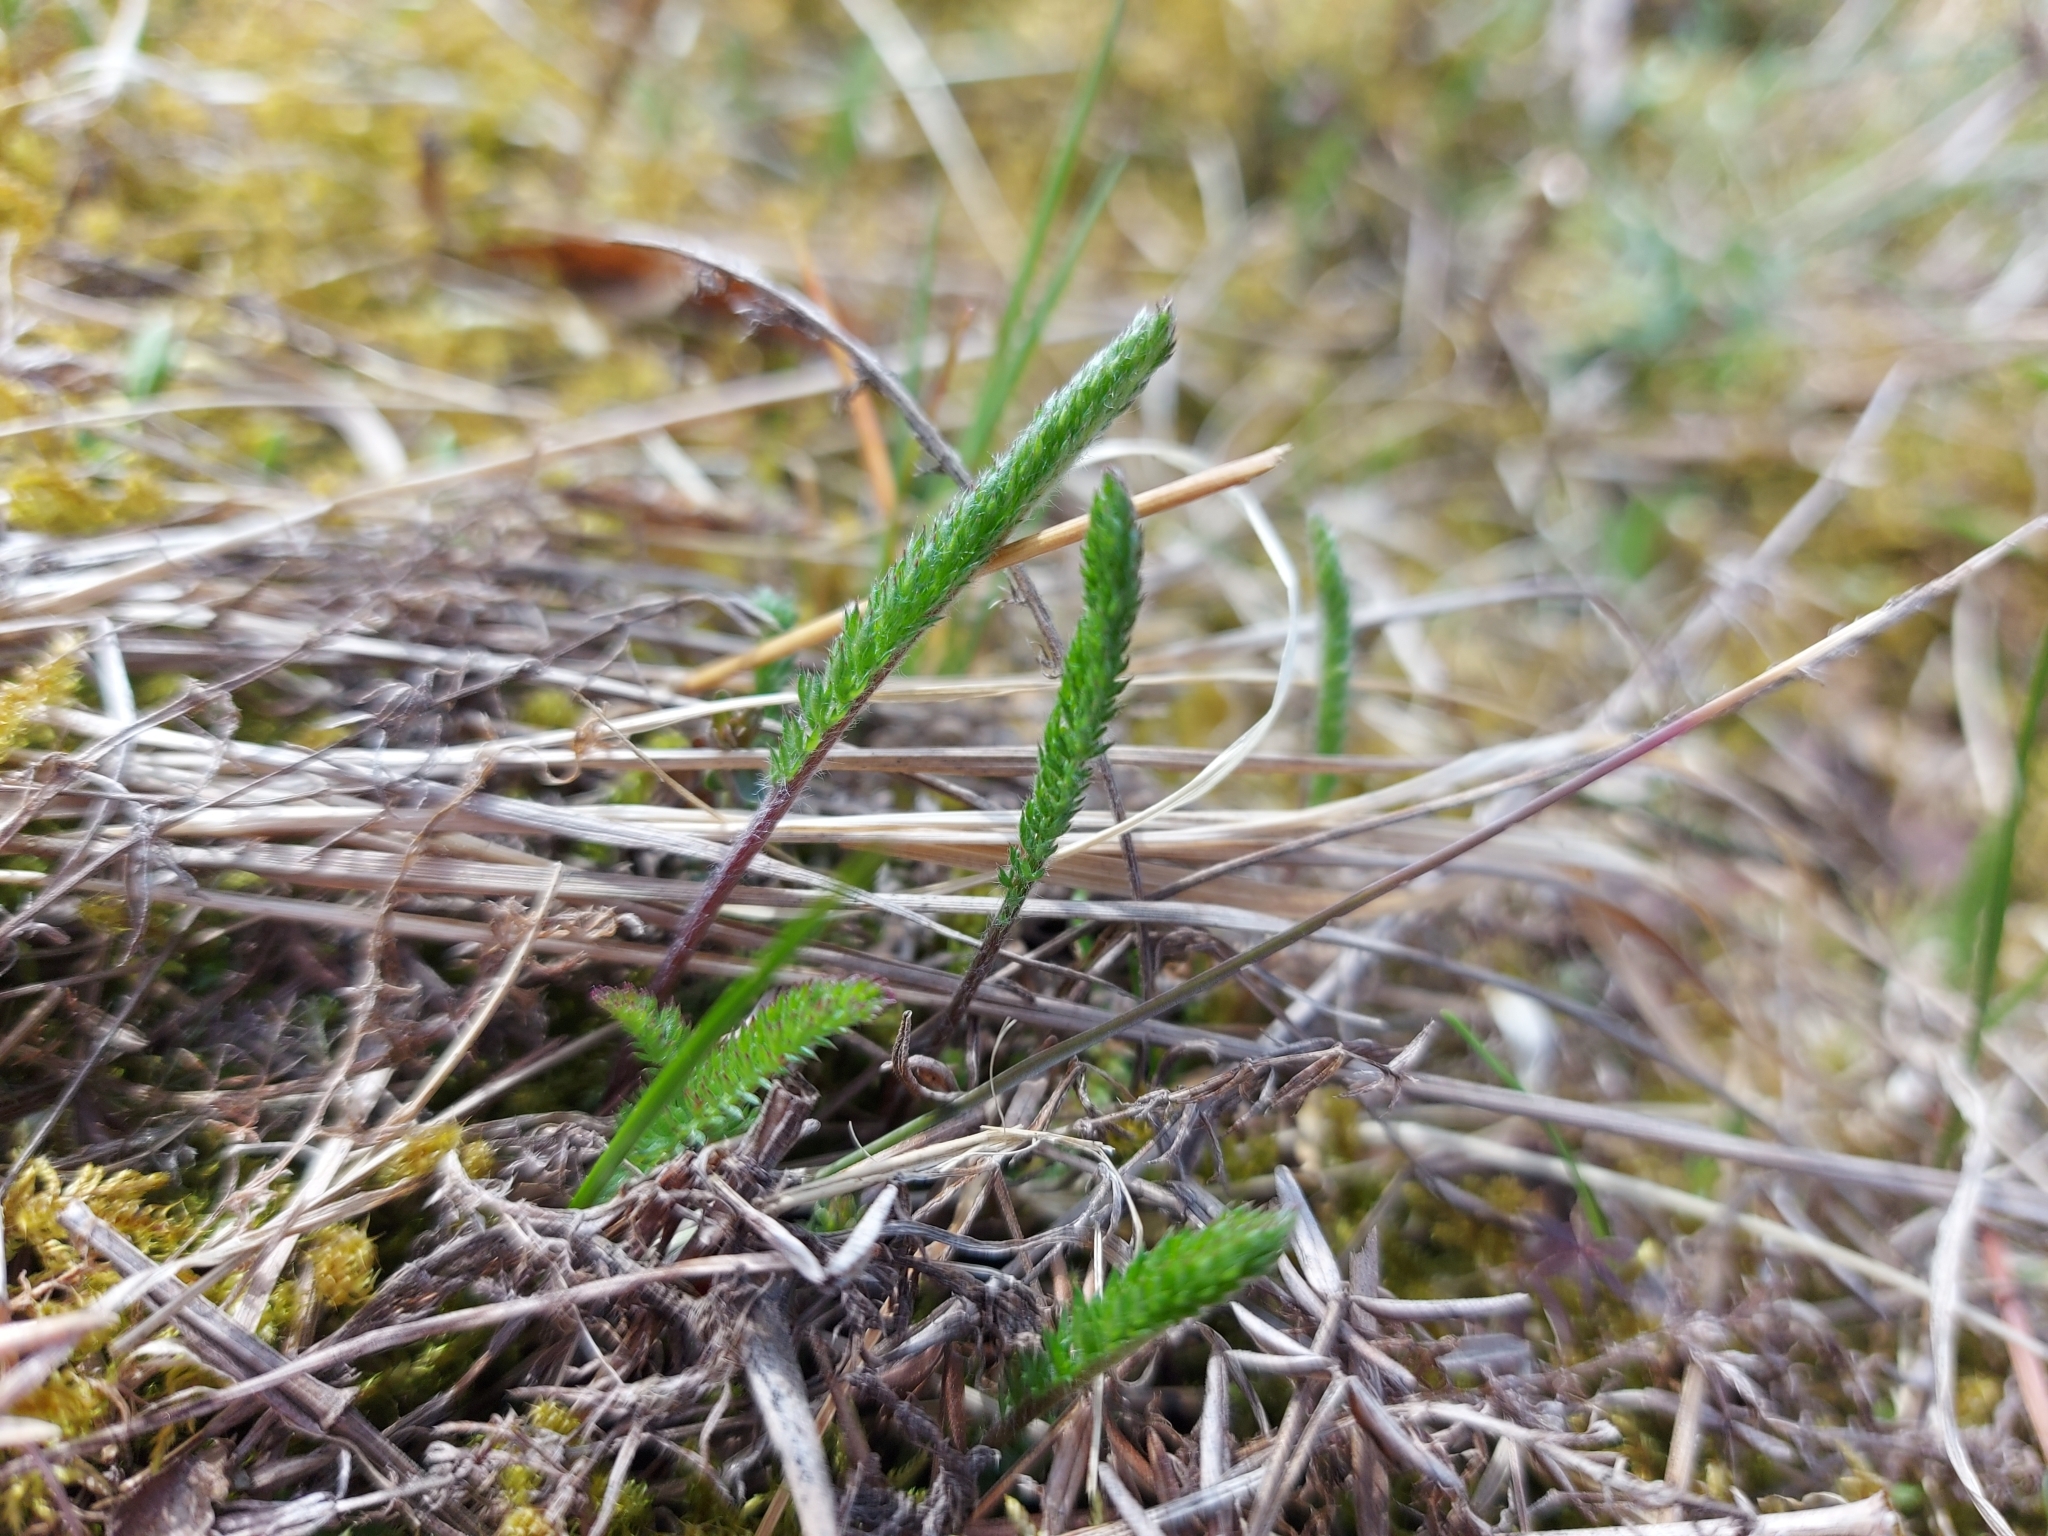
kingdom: Plantae
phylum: Tracheophyta
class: Magnoliopsida
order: Asterales
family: Asteraceae
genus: Achillea
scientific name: Achillea millefolium
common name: Yarrow
